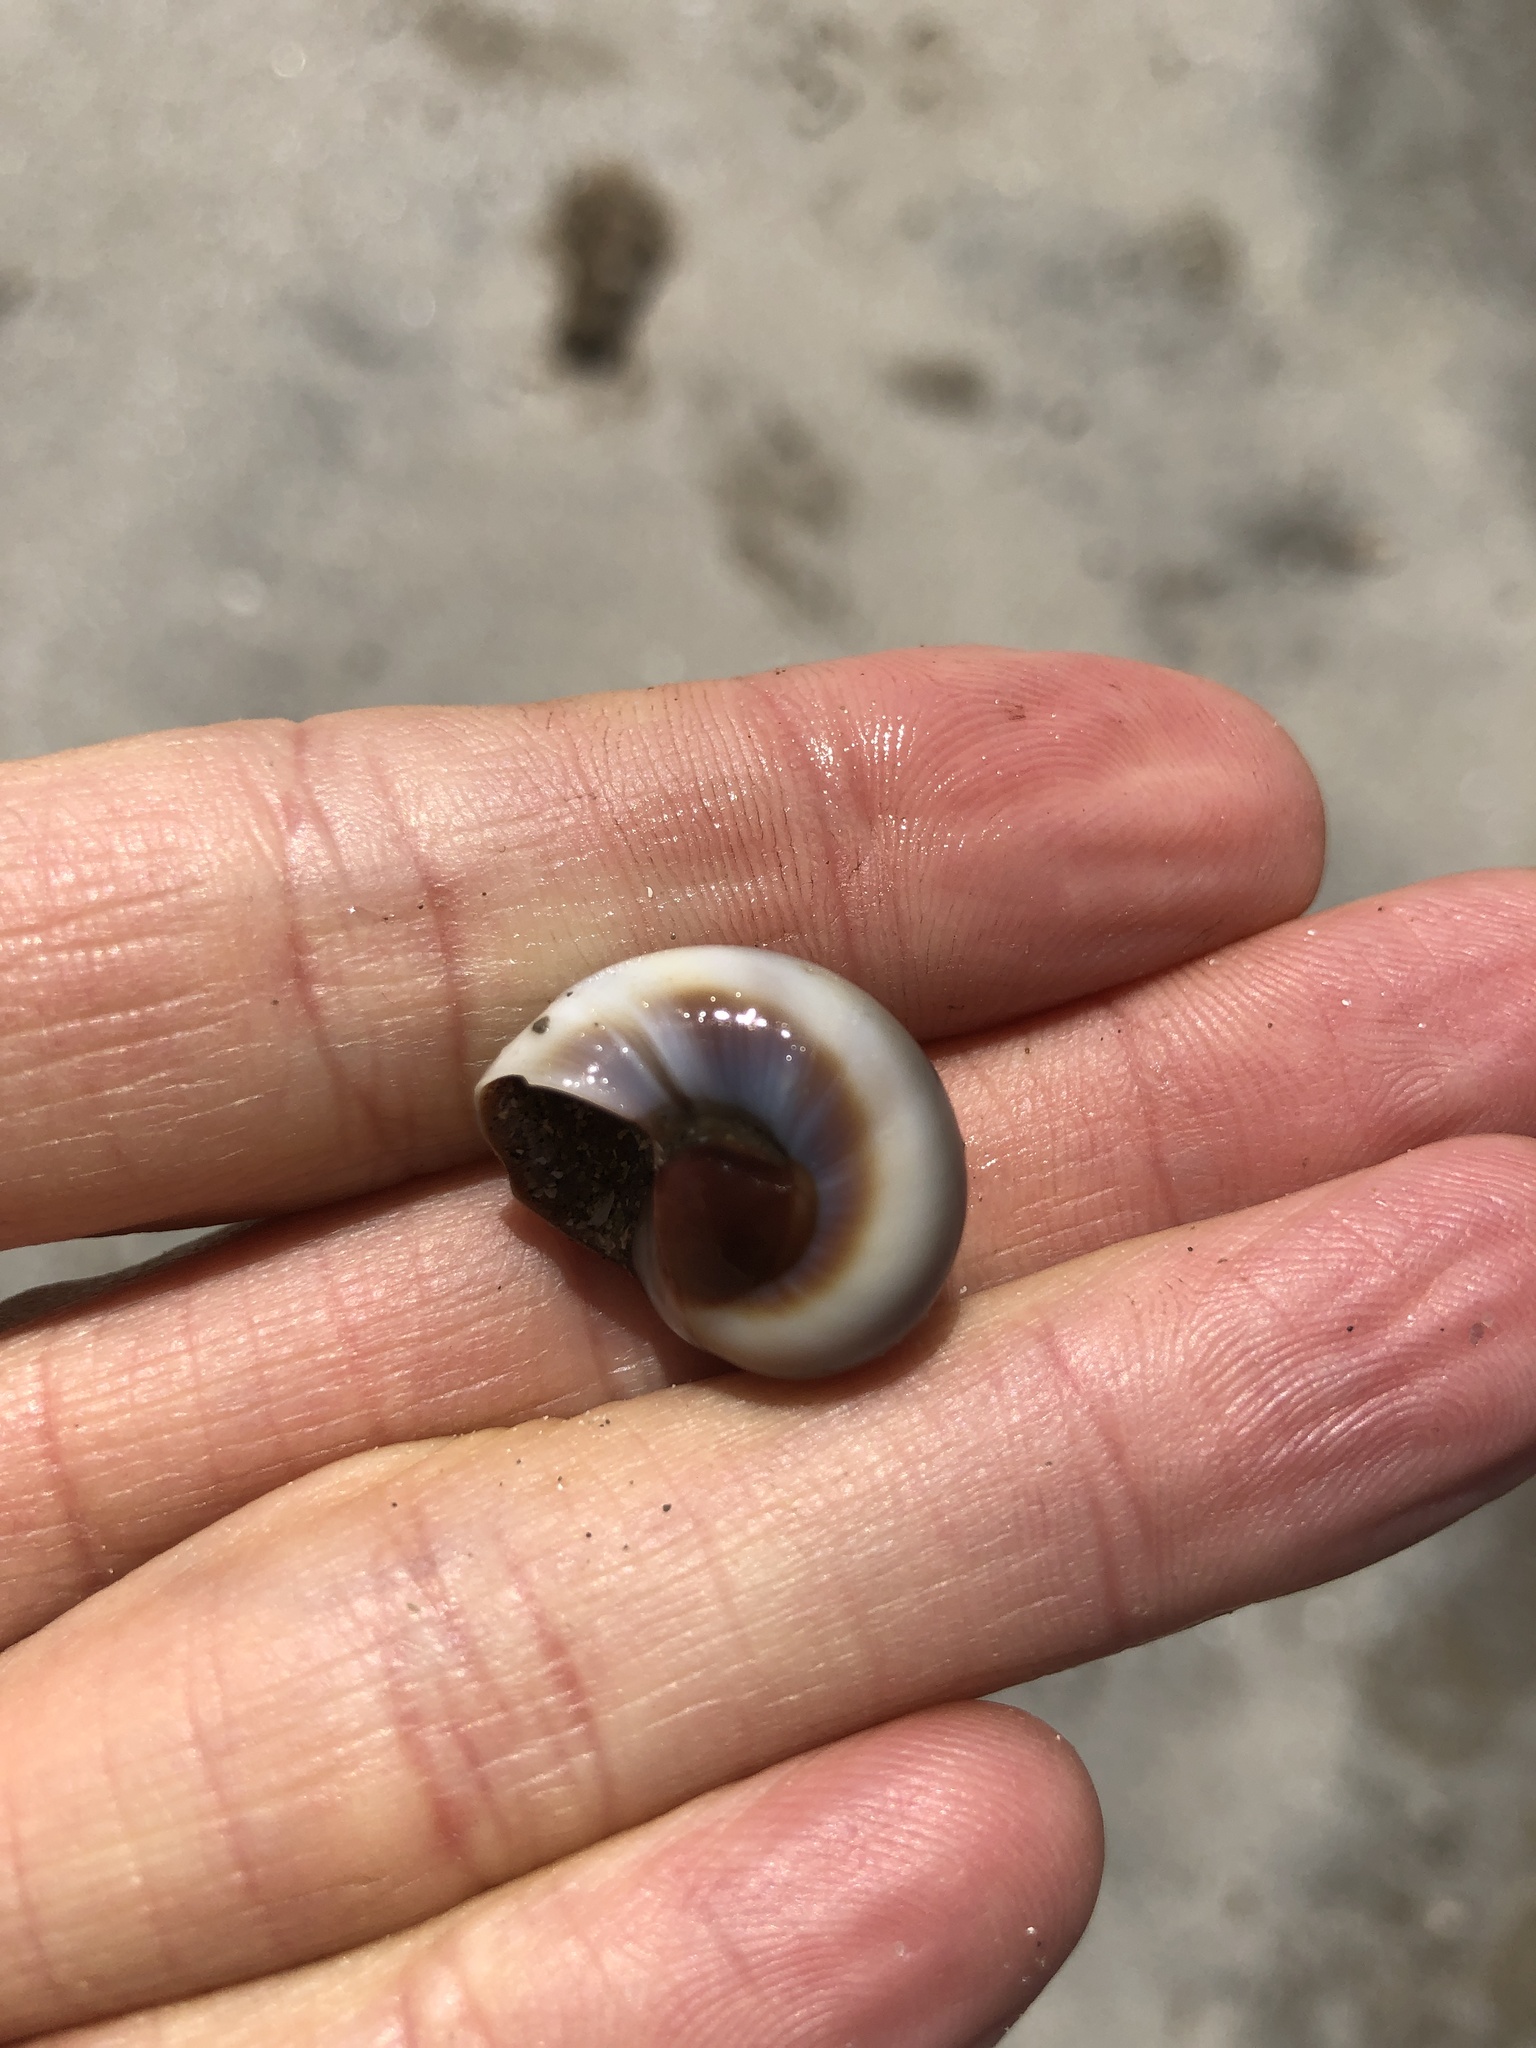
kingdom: Animalia
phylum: Mollusca
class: Gastropoda
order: Littorinimorpha
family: Naticidae
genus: Neverita
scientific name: Neverita delessertiana
